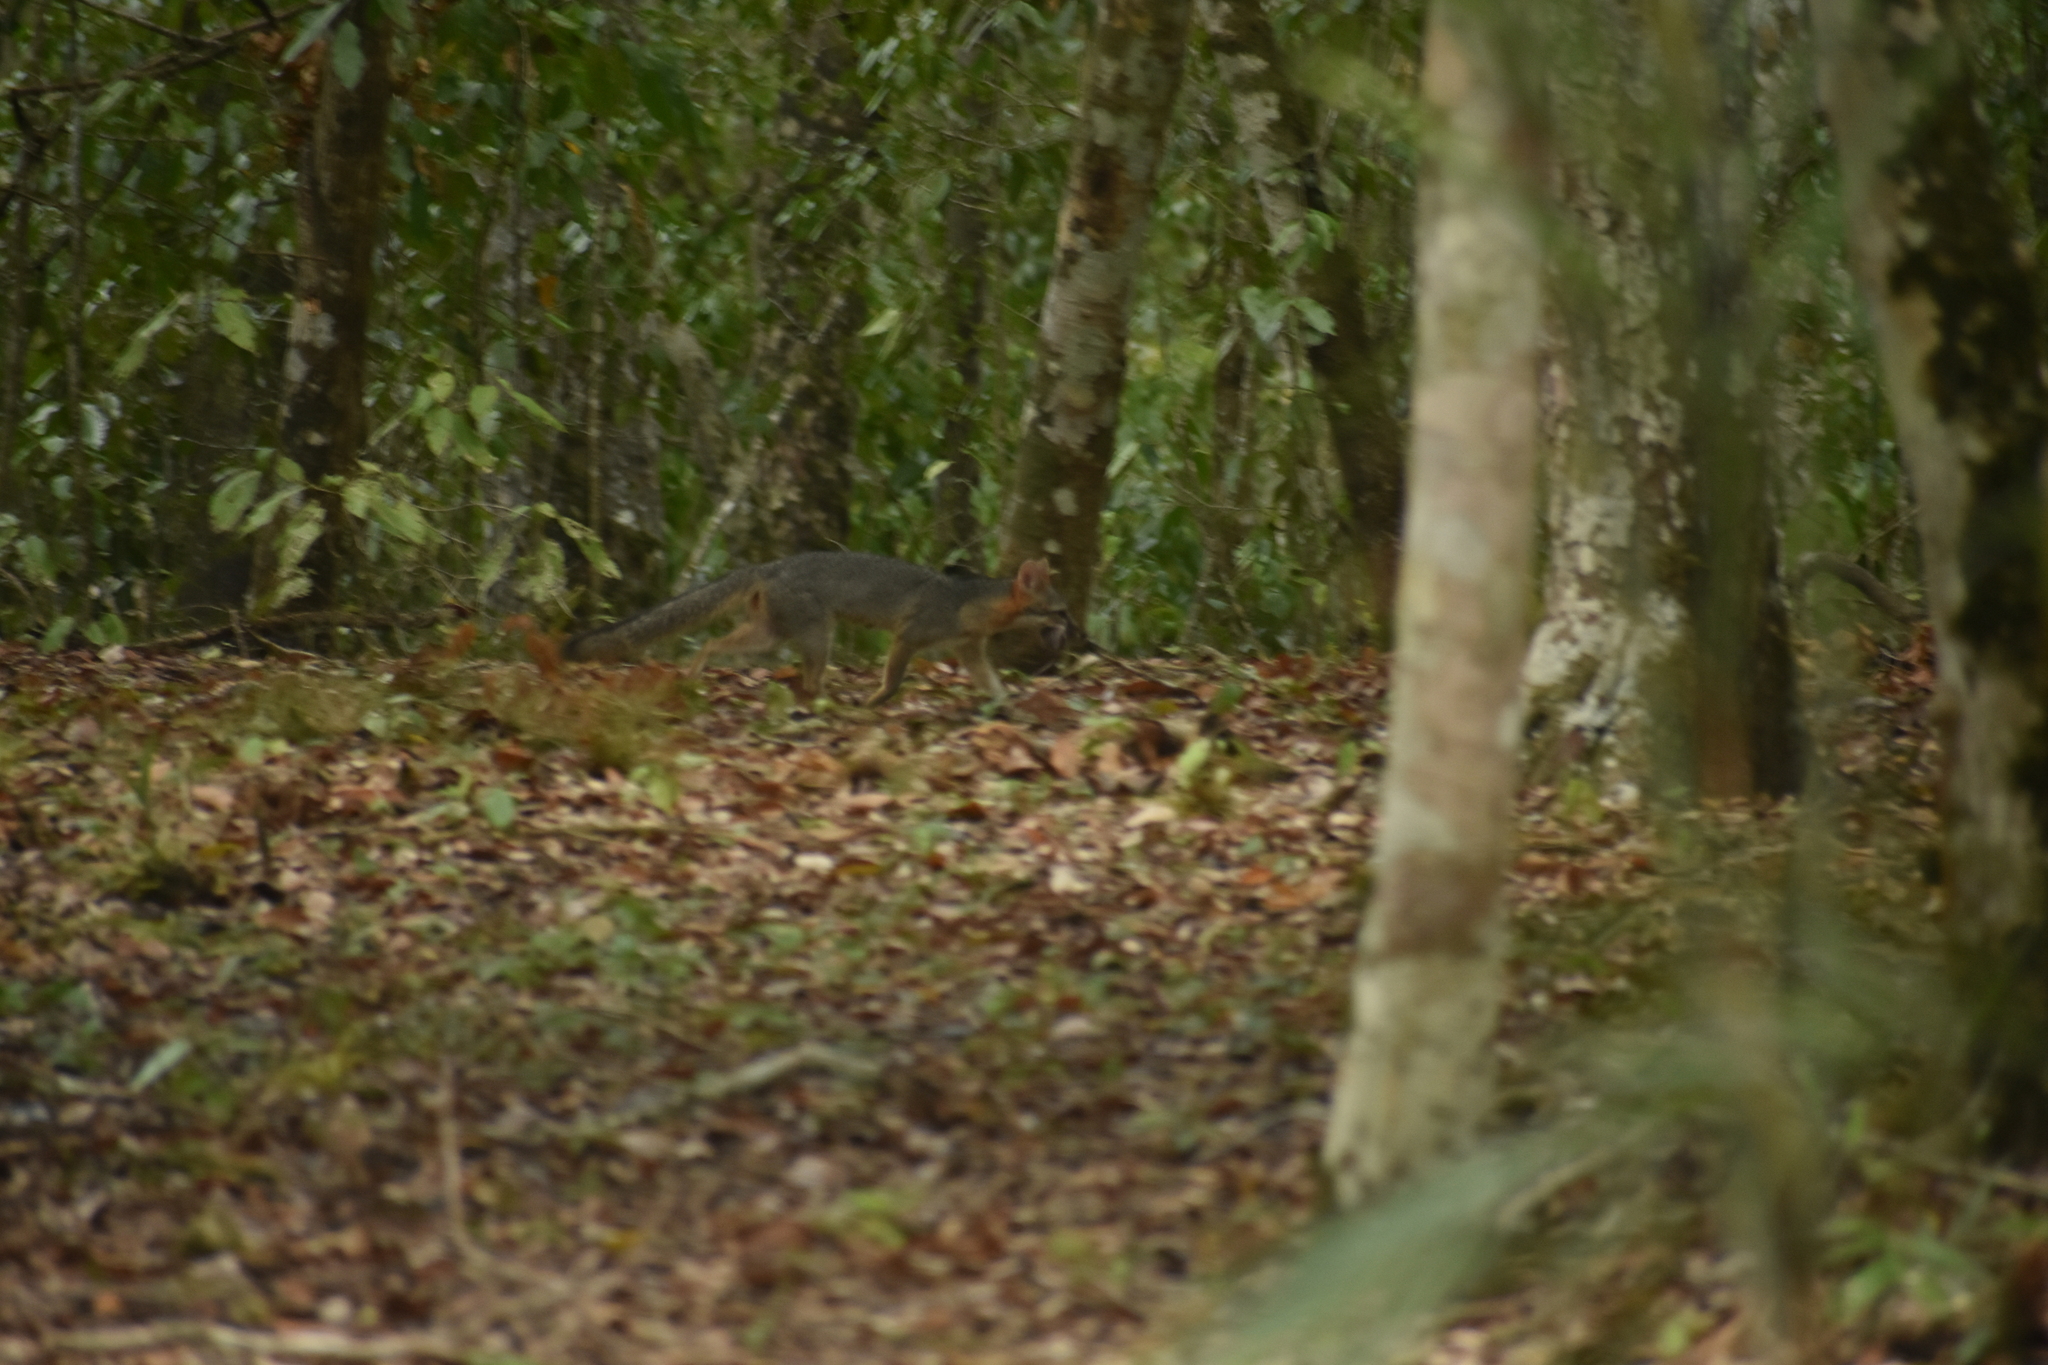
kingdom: Animalia
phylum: Chordata
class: Mammalia
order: Carnivora
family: Canidae
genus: Urocyon
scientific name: Urocyon cinereoargenteus
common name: Gray fox
